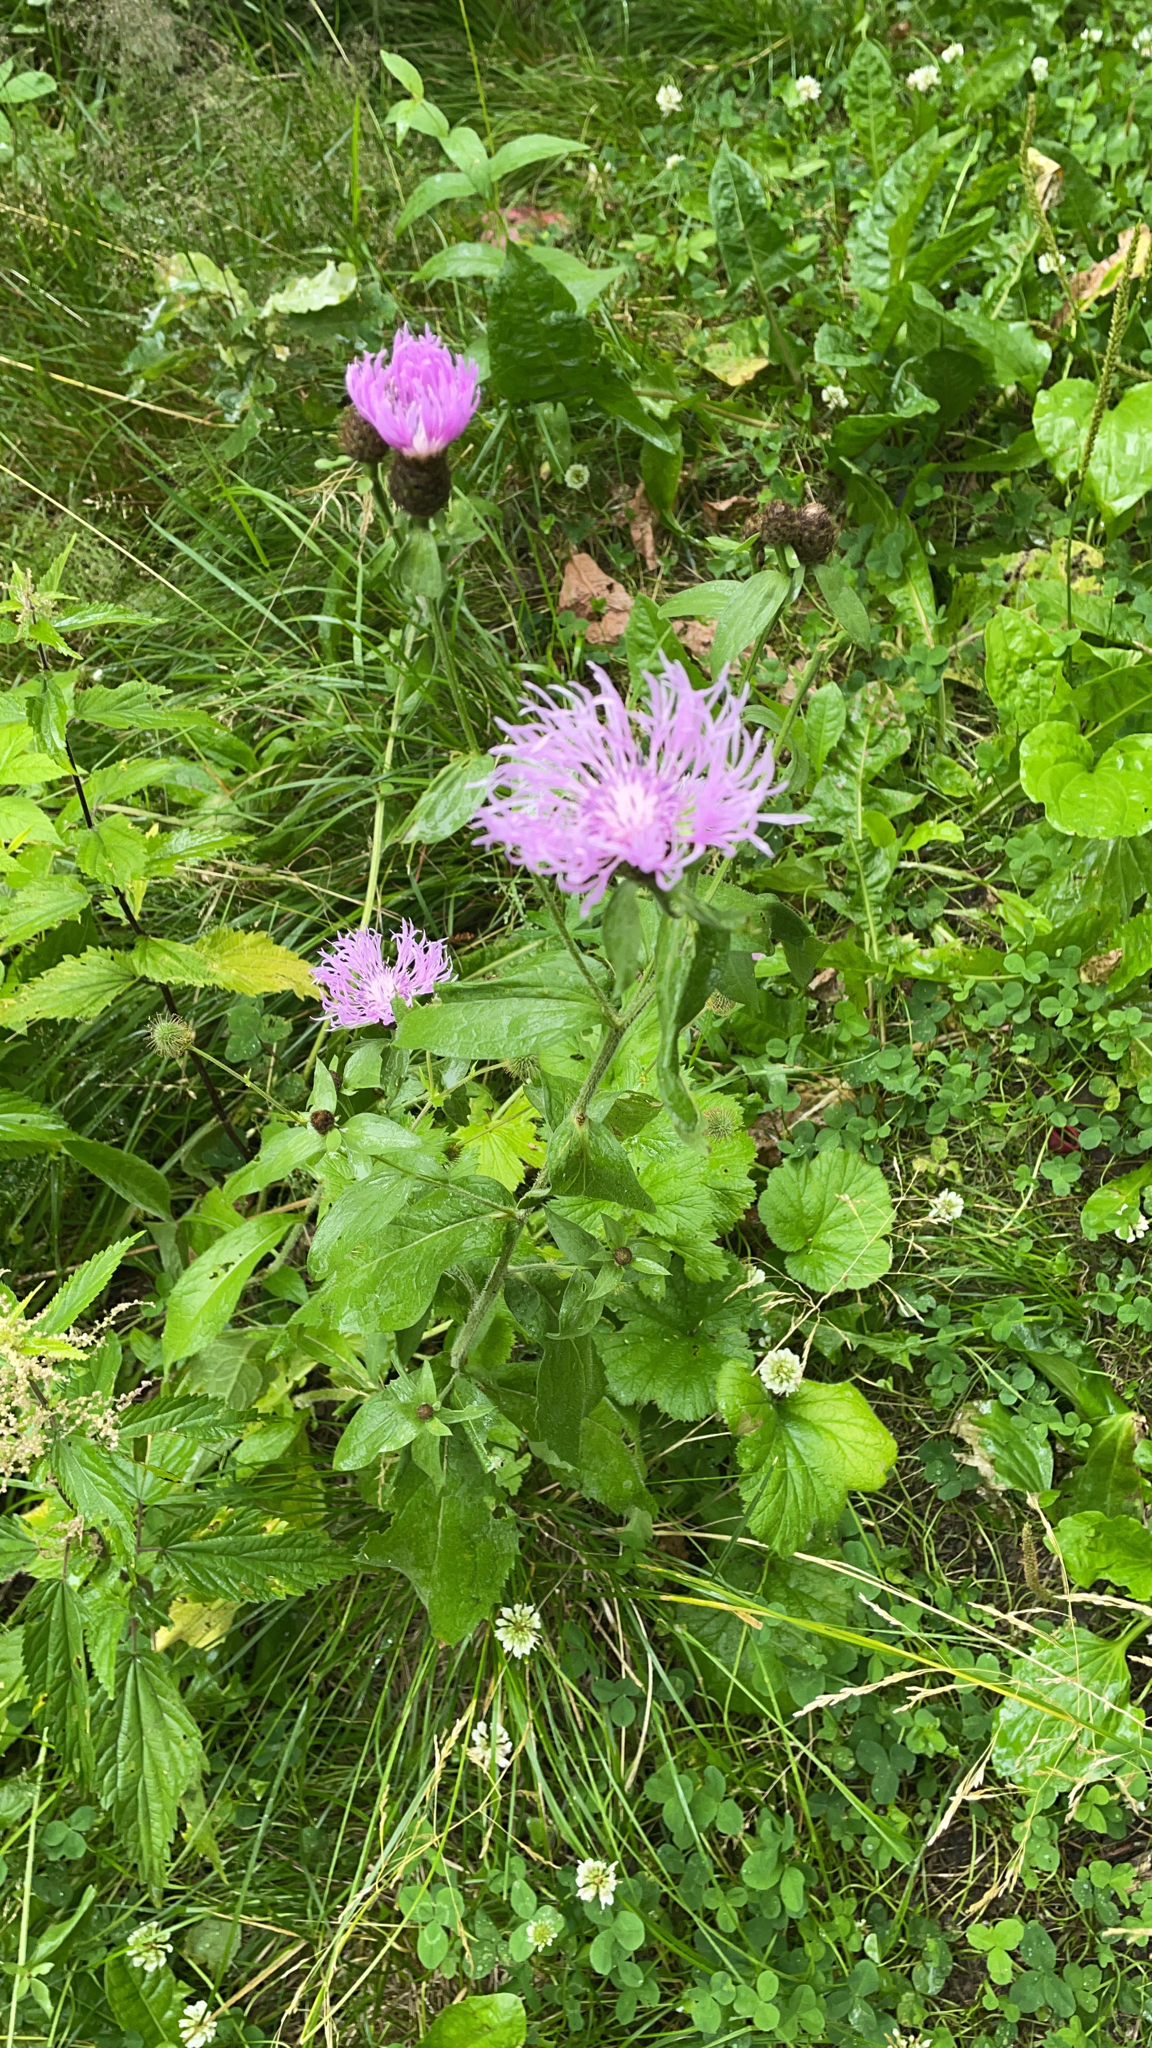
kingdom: Plantae
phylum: Tracheophyta
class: Magnoliopsida
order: Asterales
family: Asteraceae
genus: Centaurea
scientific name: Centaurea phrygia
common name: Wig knapweed
